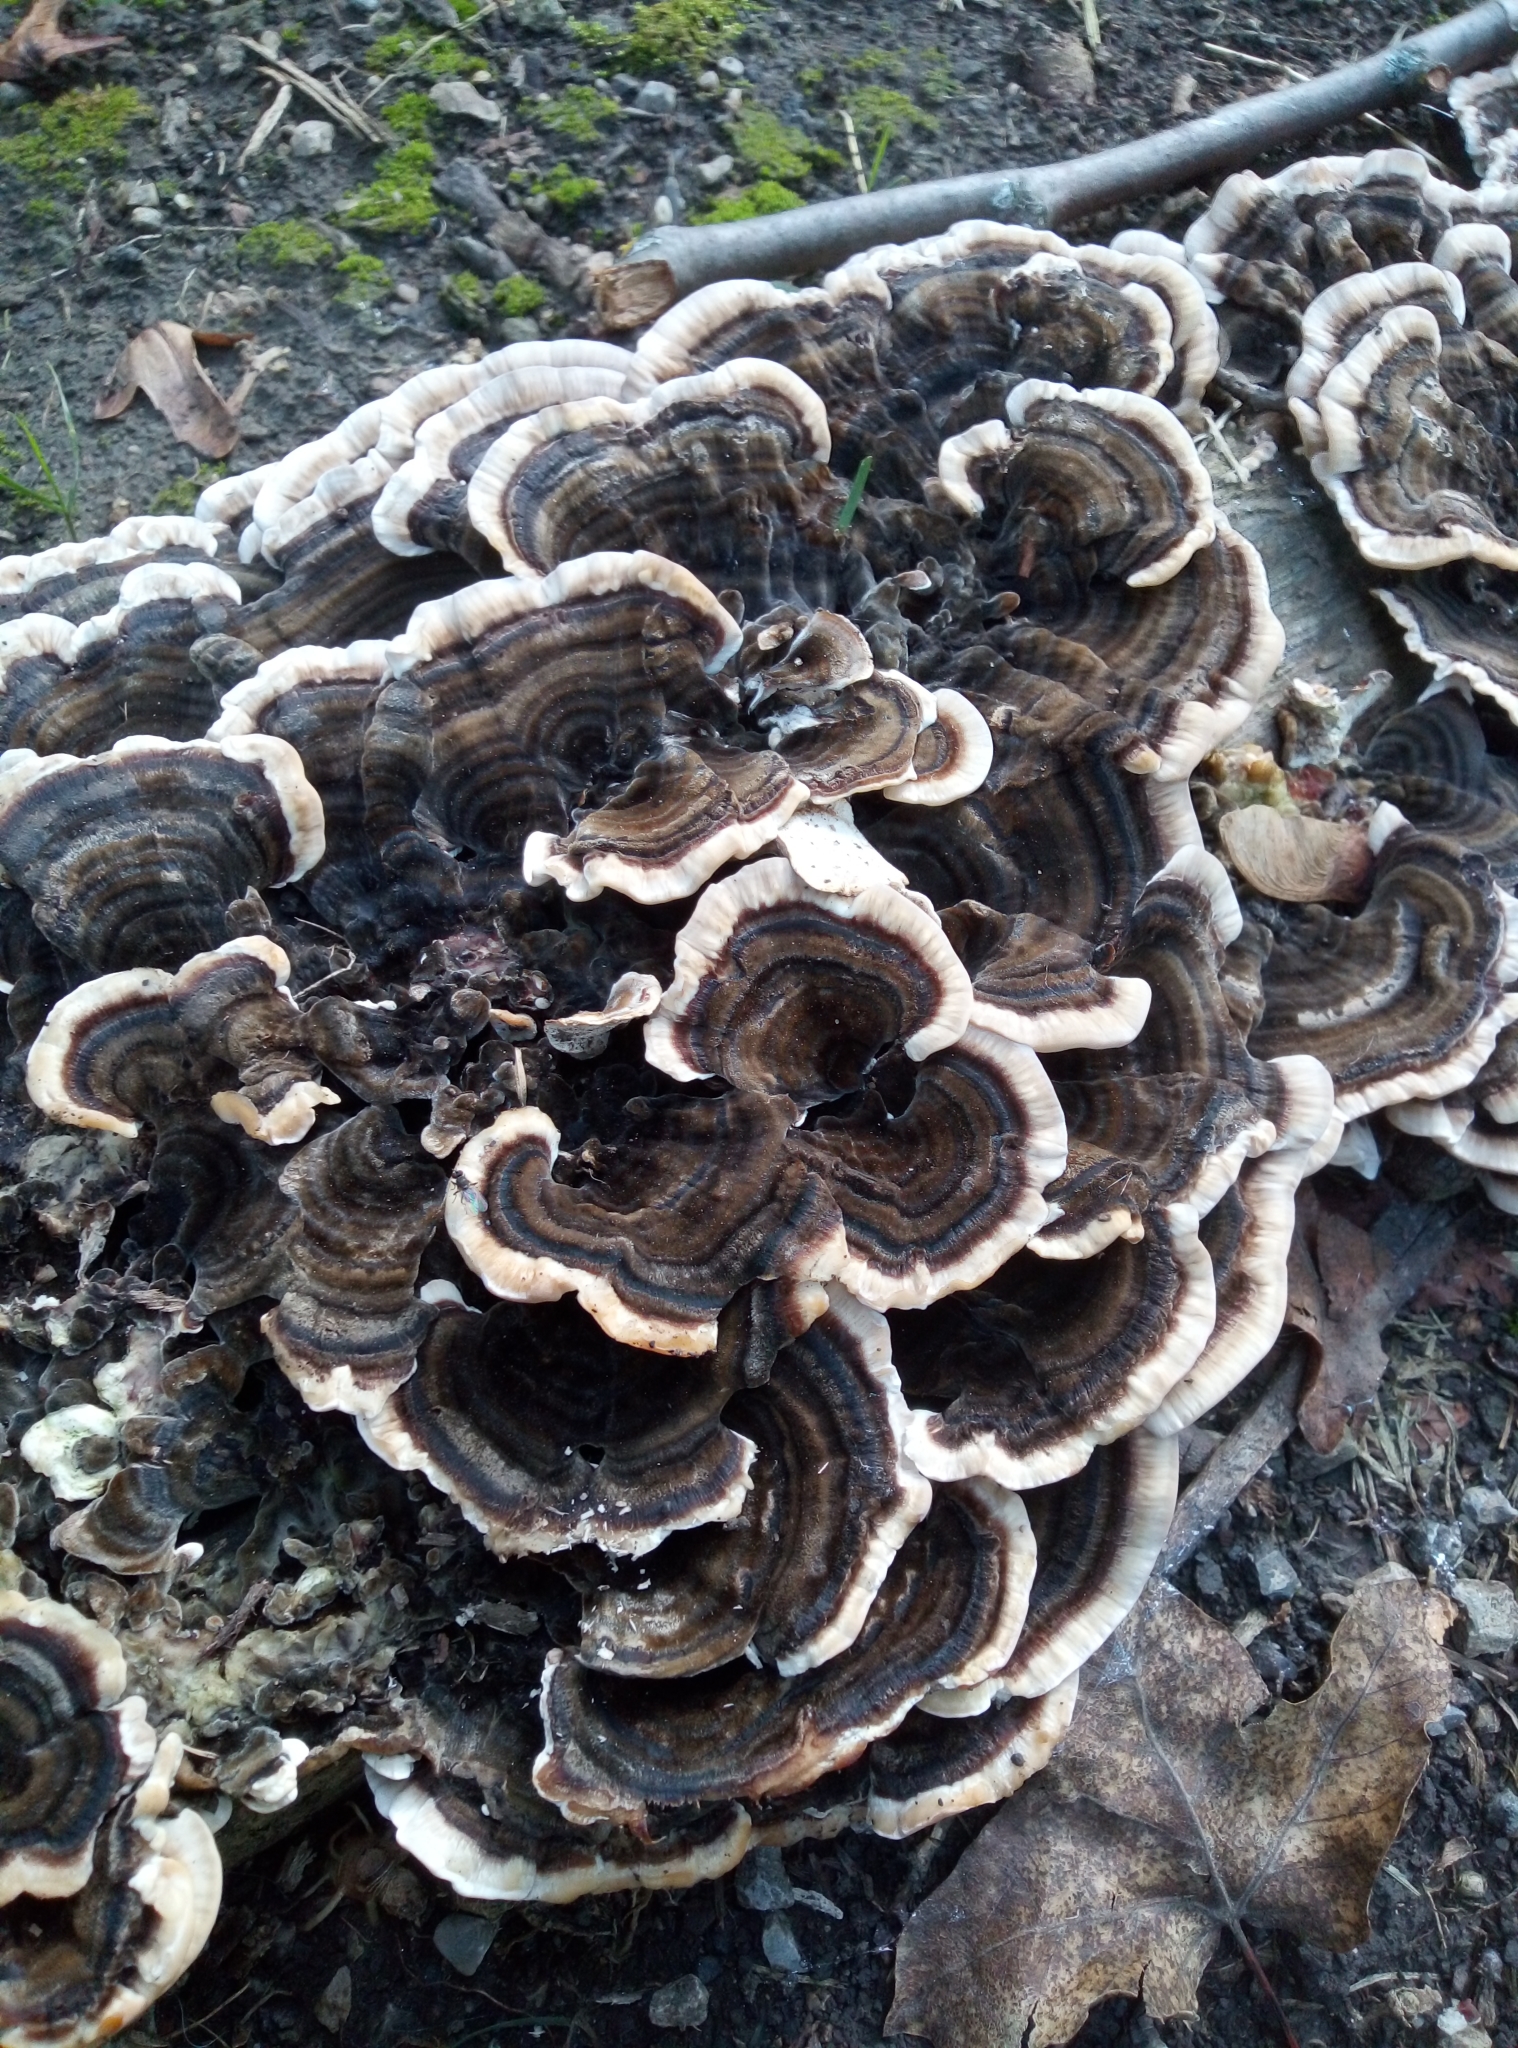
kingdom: Fungi
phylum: Basidiomycota
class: Agaricomycetes
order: Polyporales
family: Polyporaceae
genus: Trametes
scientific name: Trametes versicolor
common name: Turkeytail
